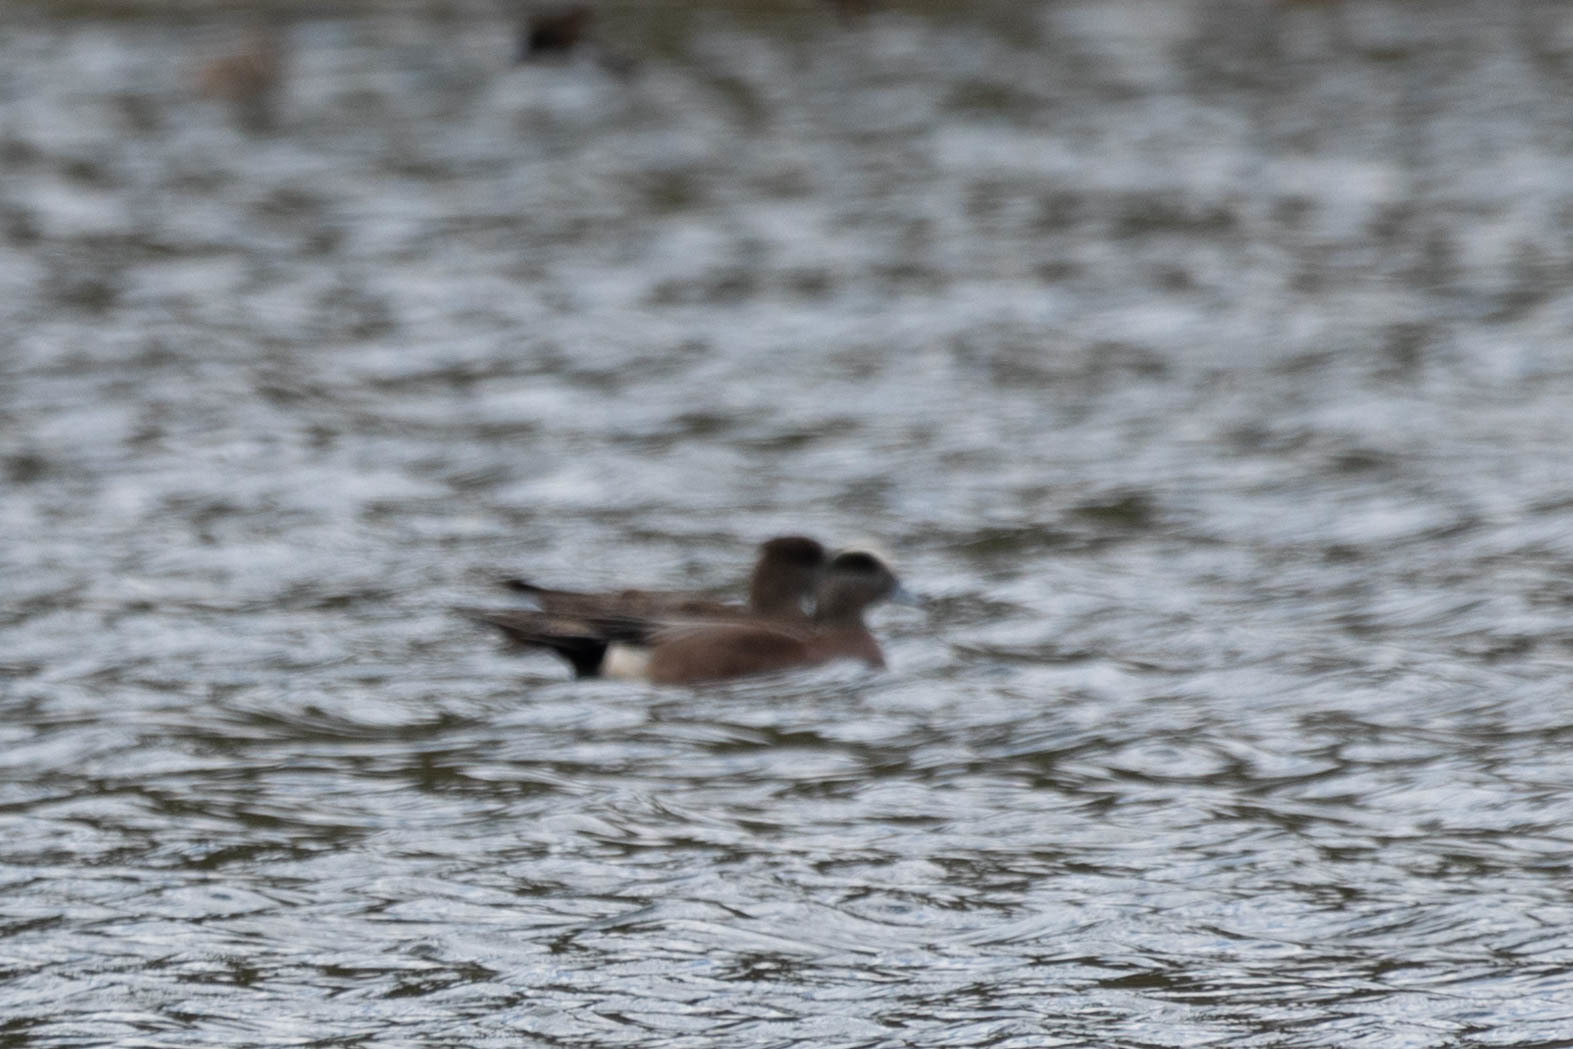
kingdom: Animalia
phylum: Chordata
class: Aves
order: Anseriformes
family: Anatidae
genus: Mareca
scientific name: Mareca americana
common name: American wigeon
